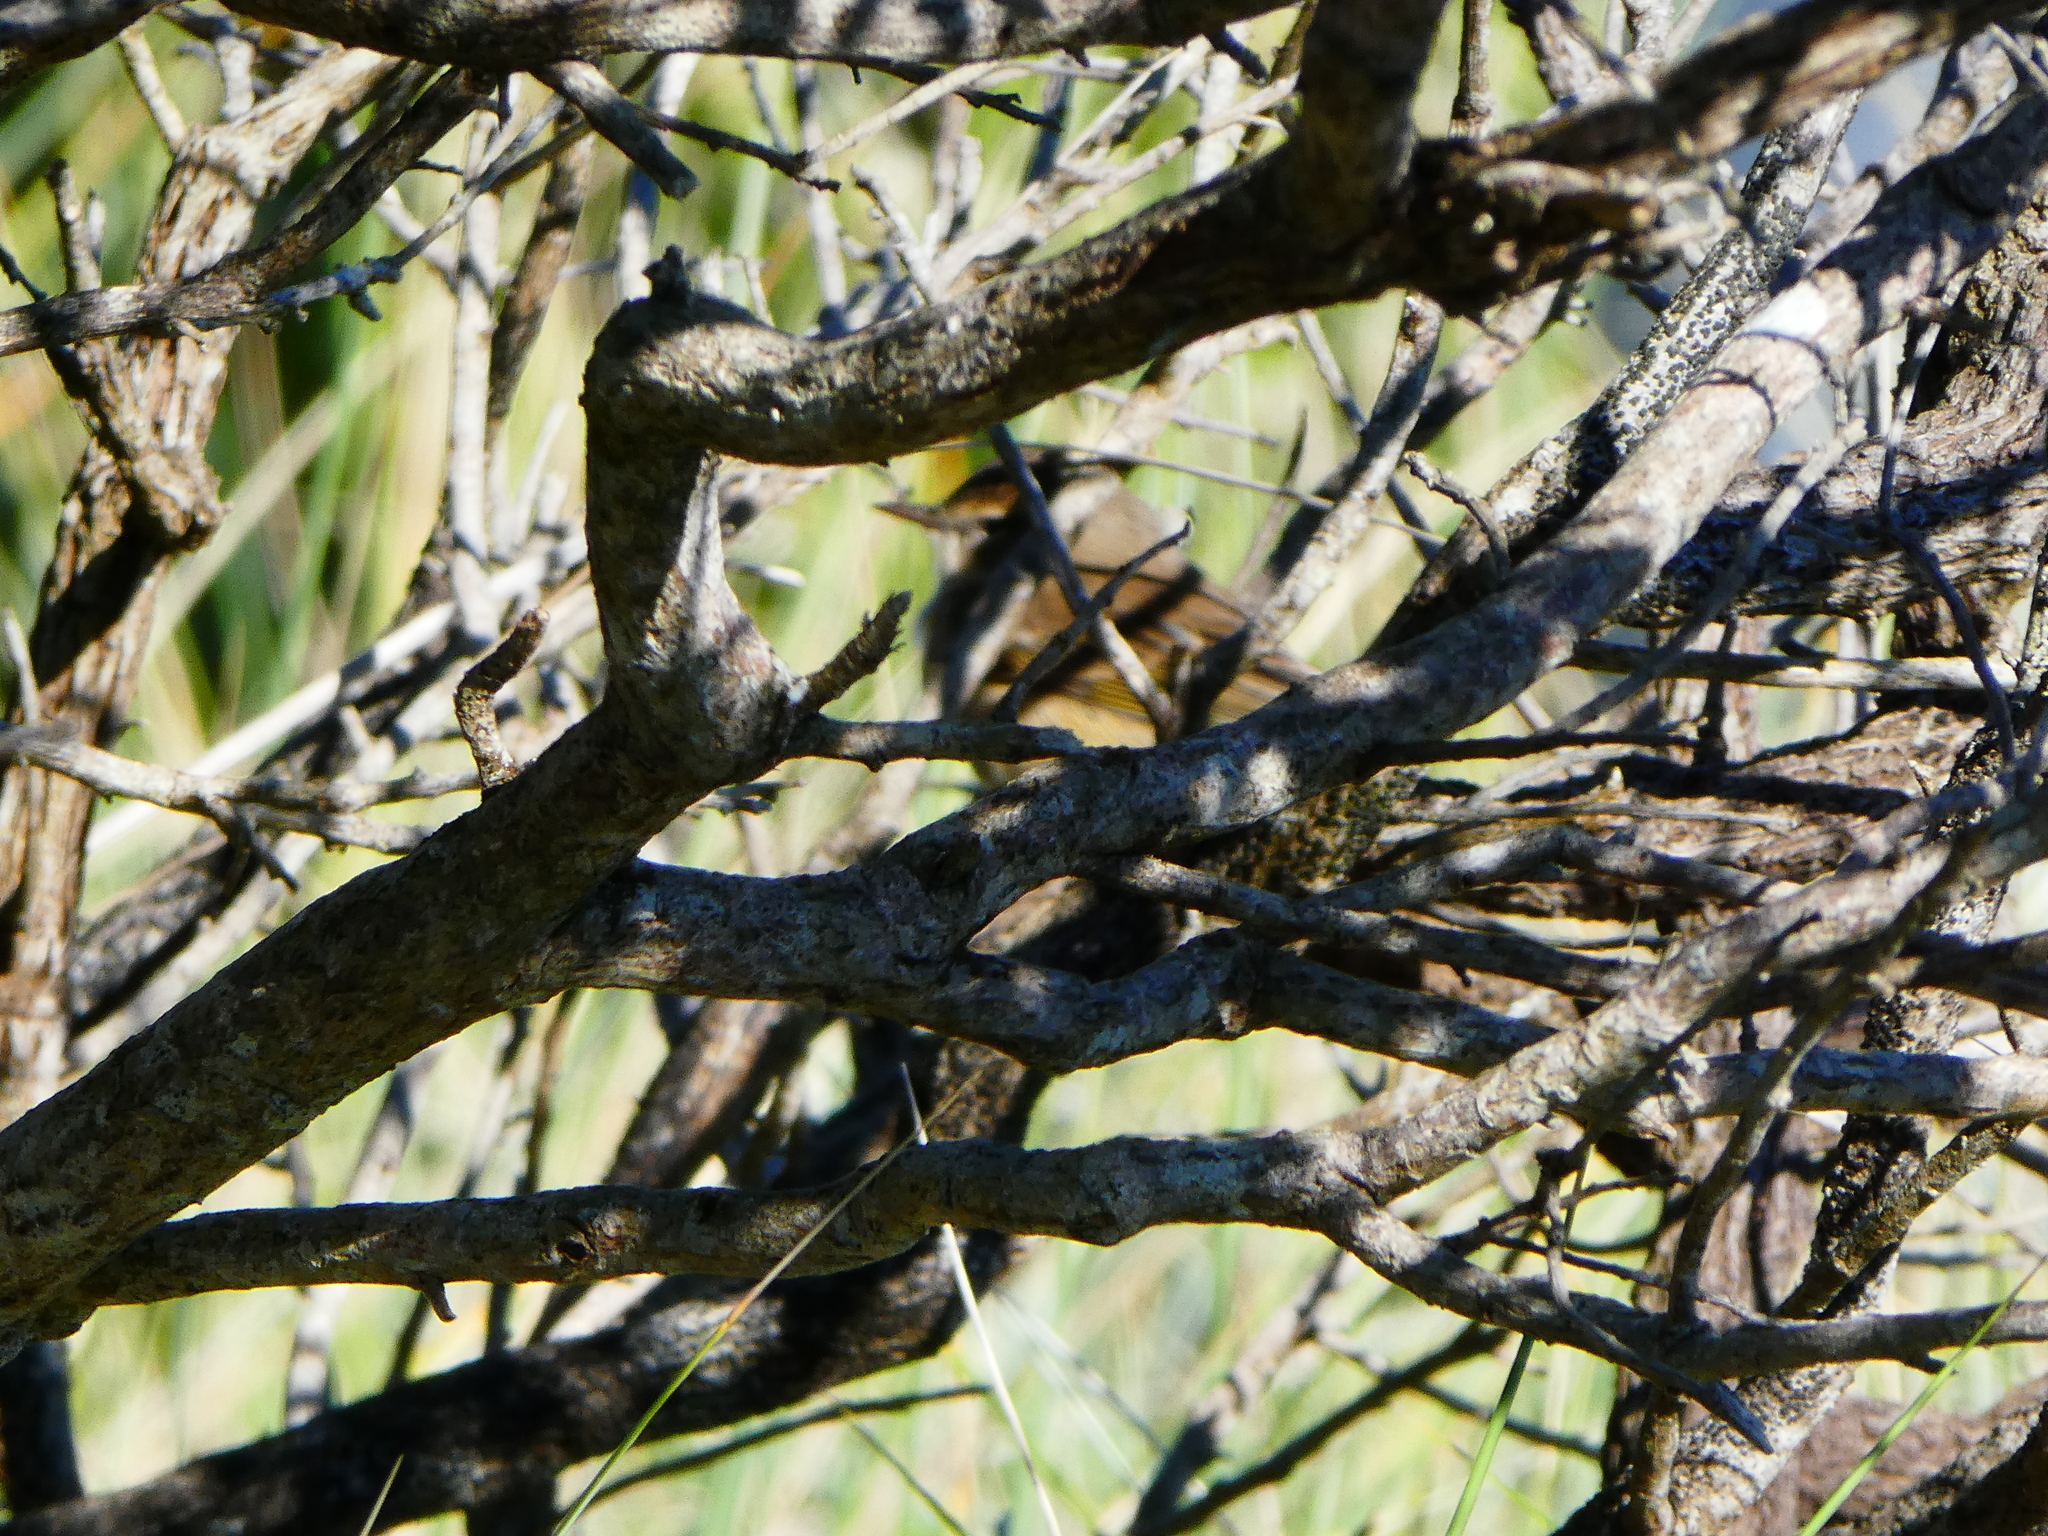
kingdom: Animalia
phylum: Chordata
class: Aves
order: Passeriformes
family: Parulidae
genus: Setophaga
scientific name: Setophaga palmarum
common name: Palm warbler
